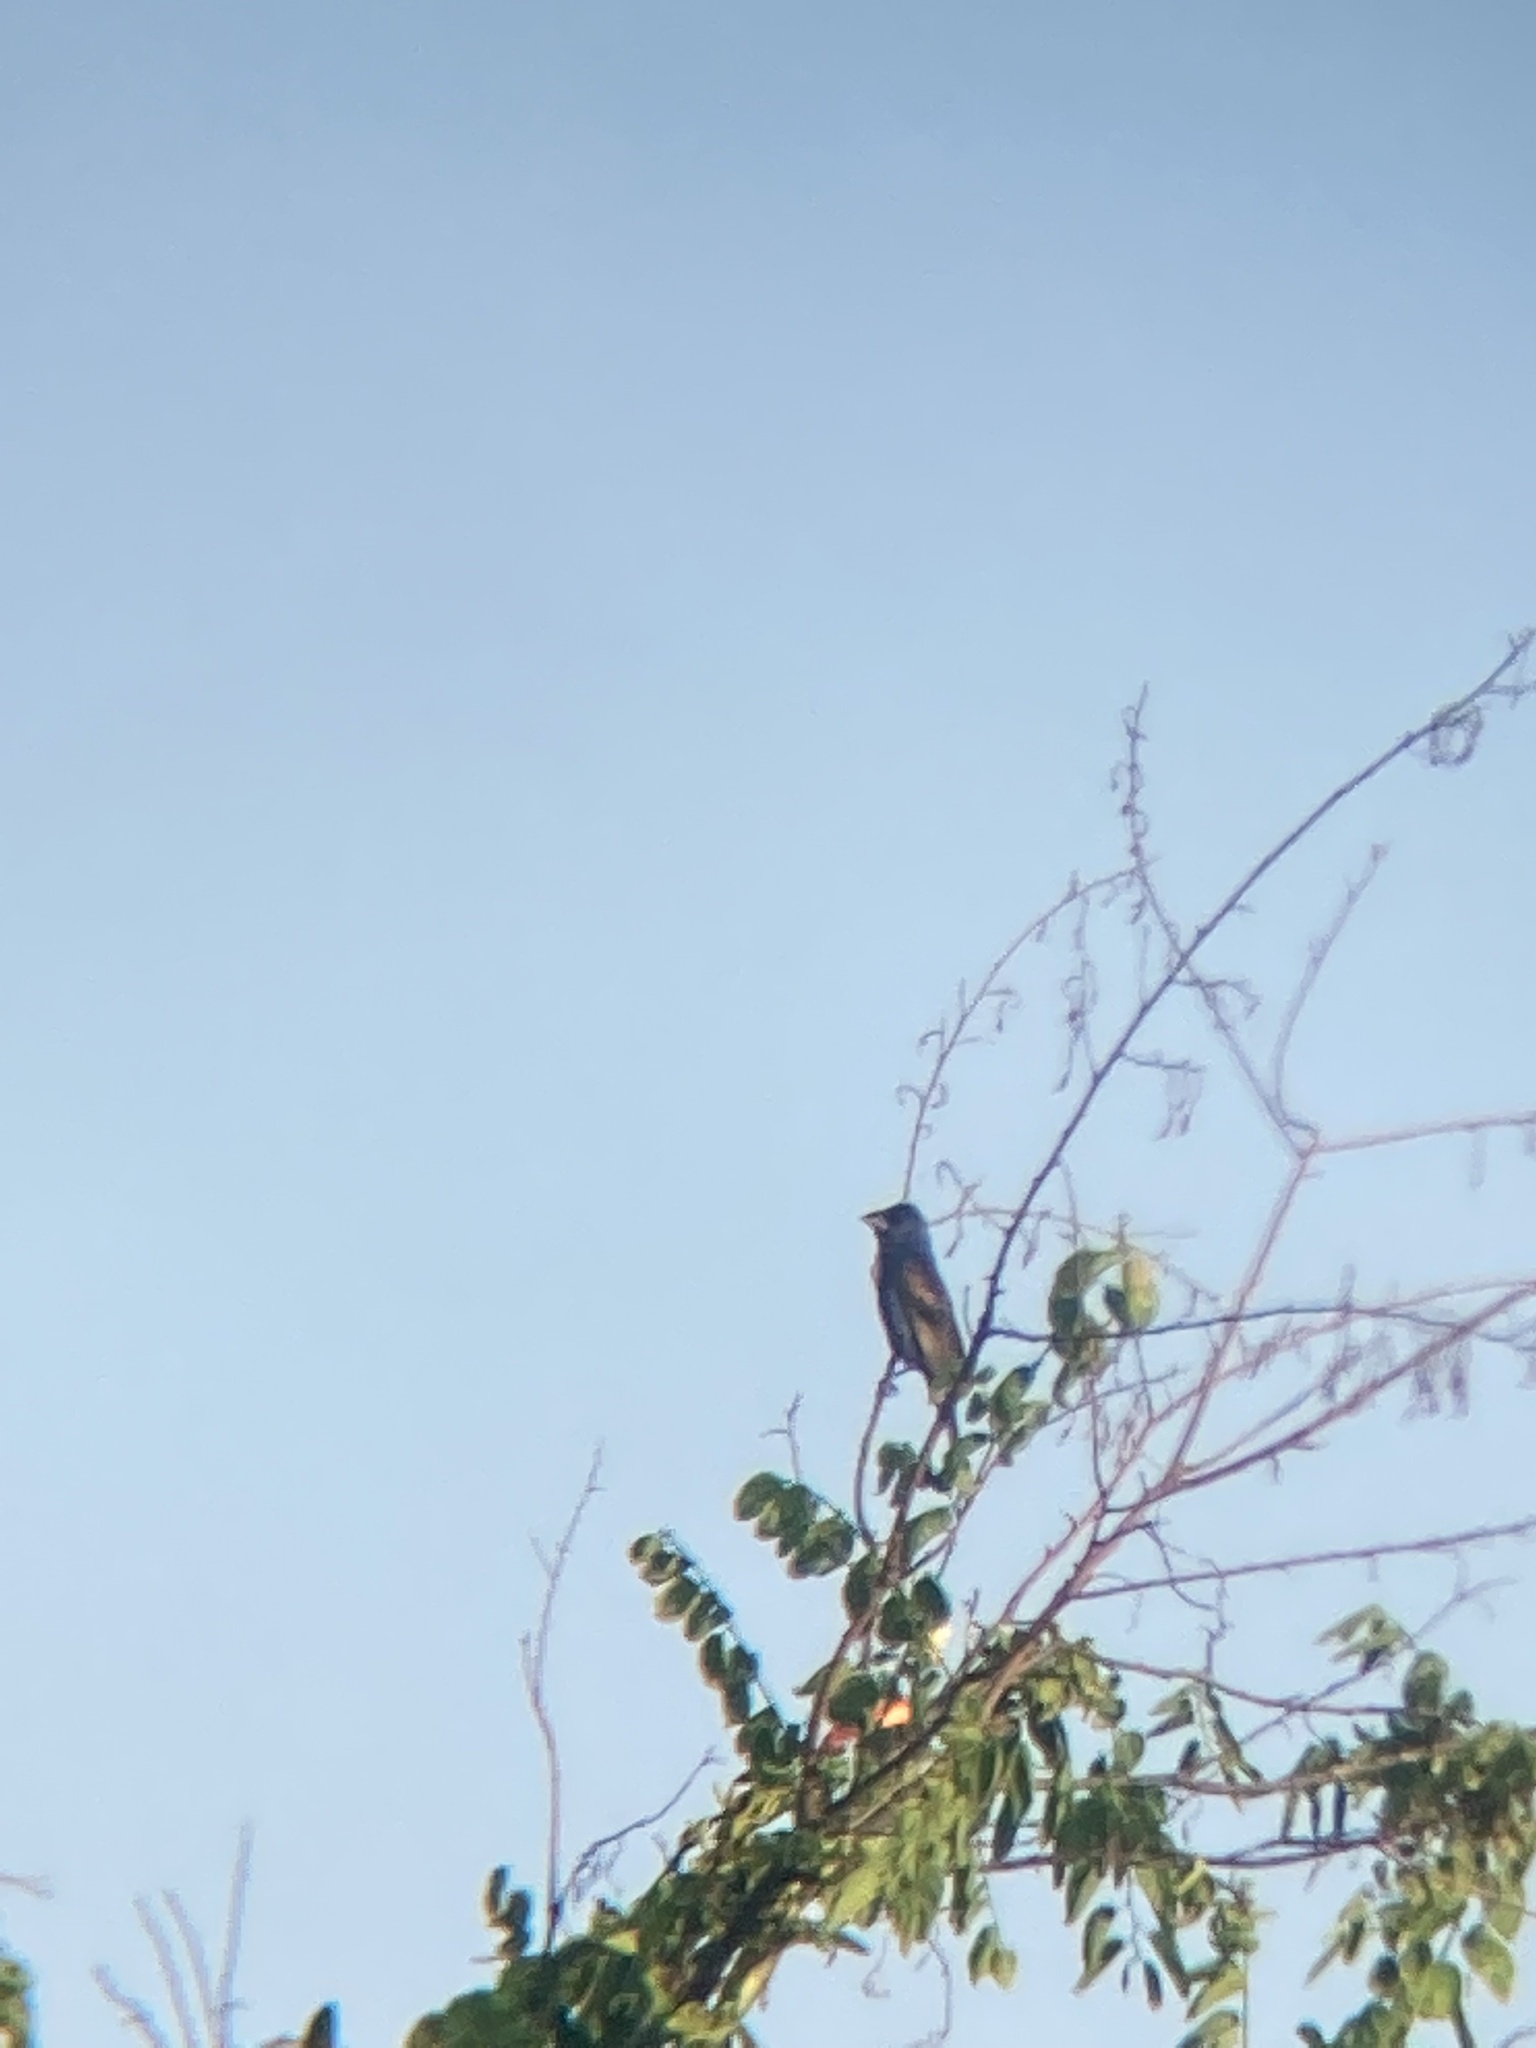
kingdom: Animalia
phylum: Chordata
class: Aves
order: Passeriformes
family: Cardinalidae
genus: Passerina
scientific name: Passerina caerulea
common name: Blue grosbeak
